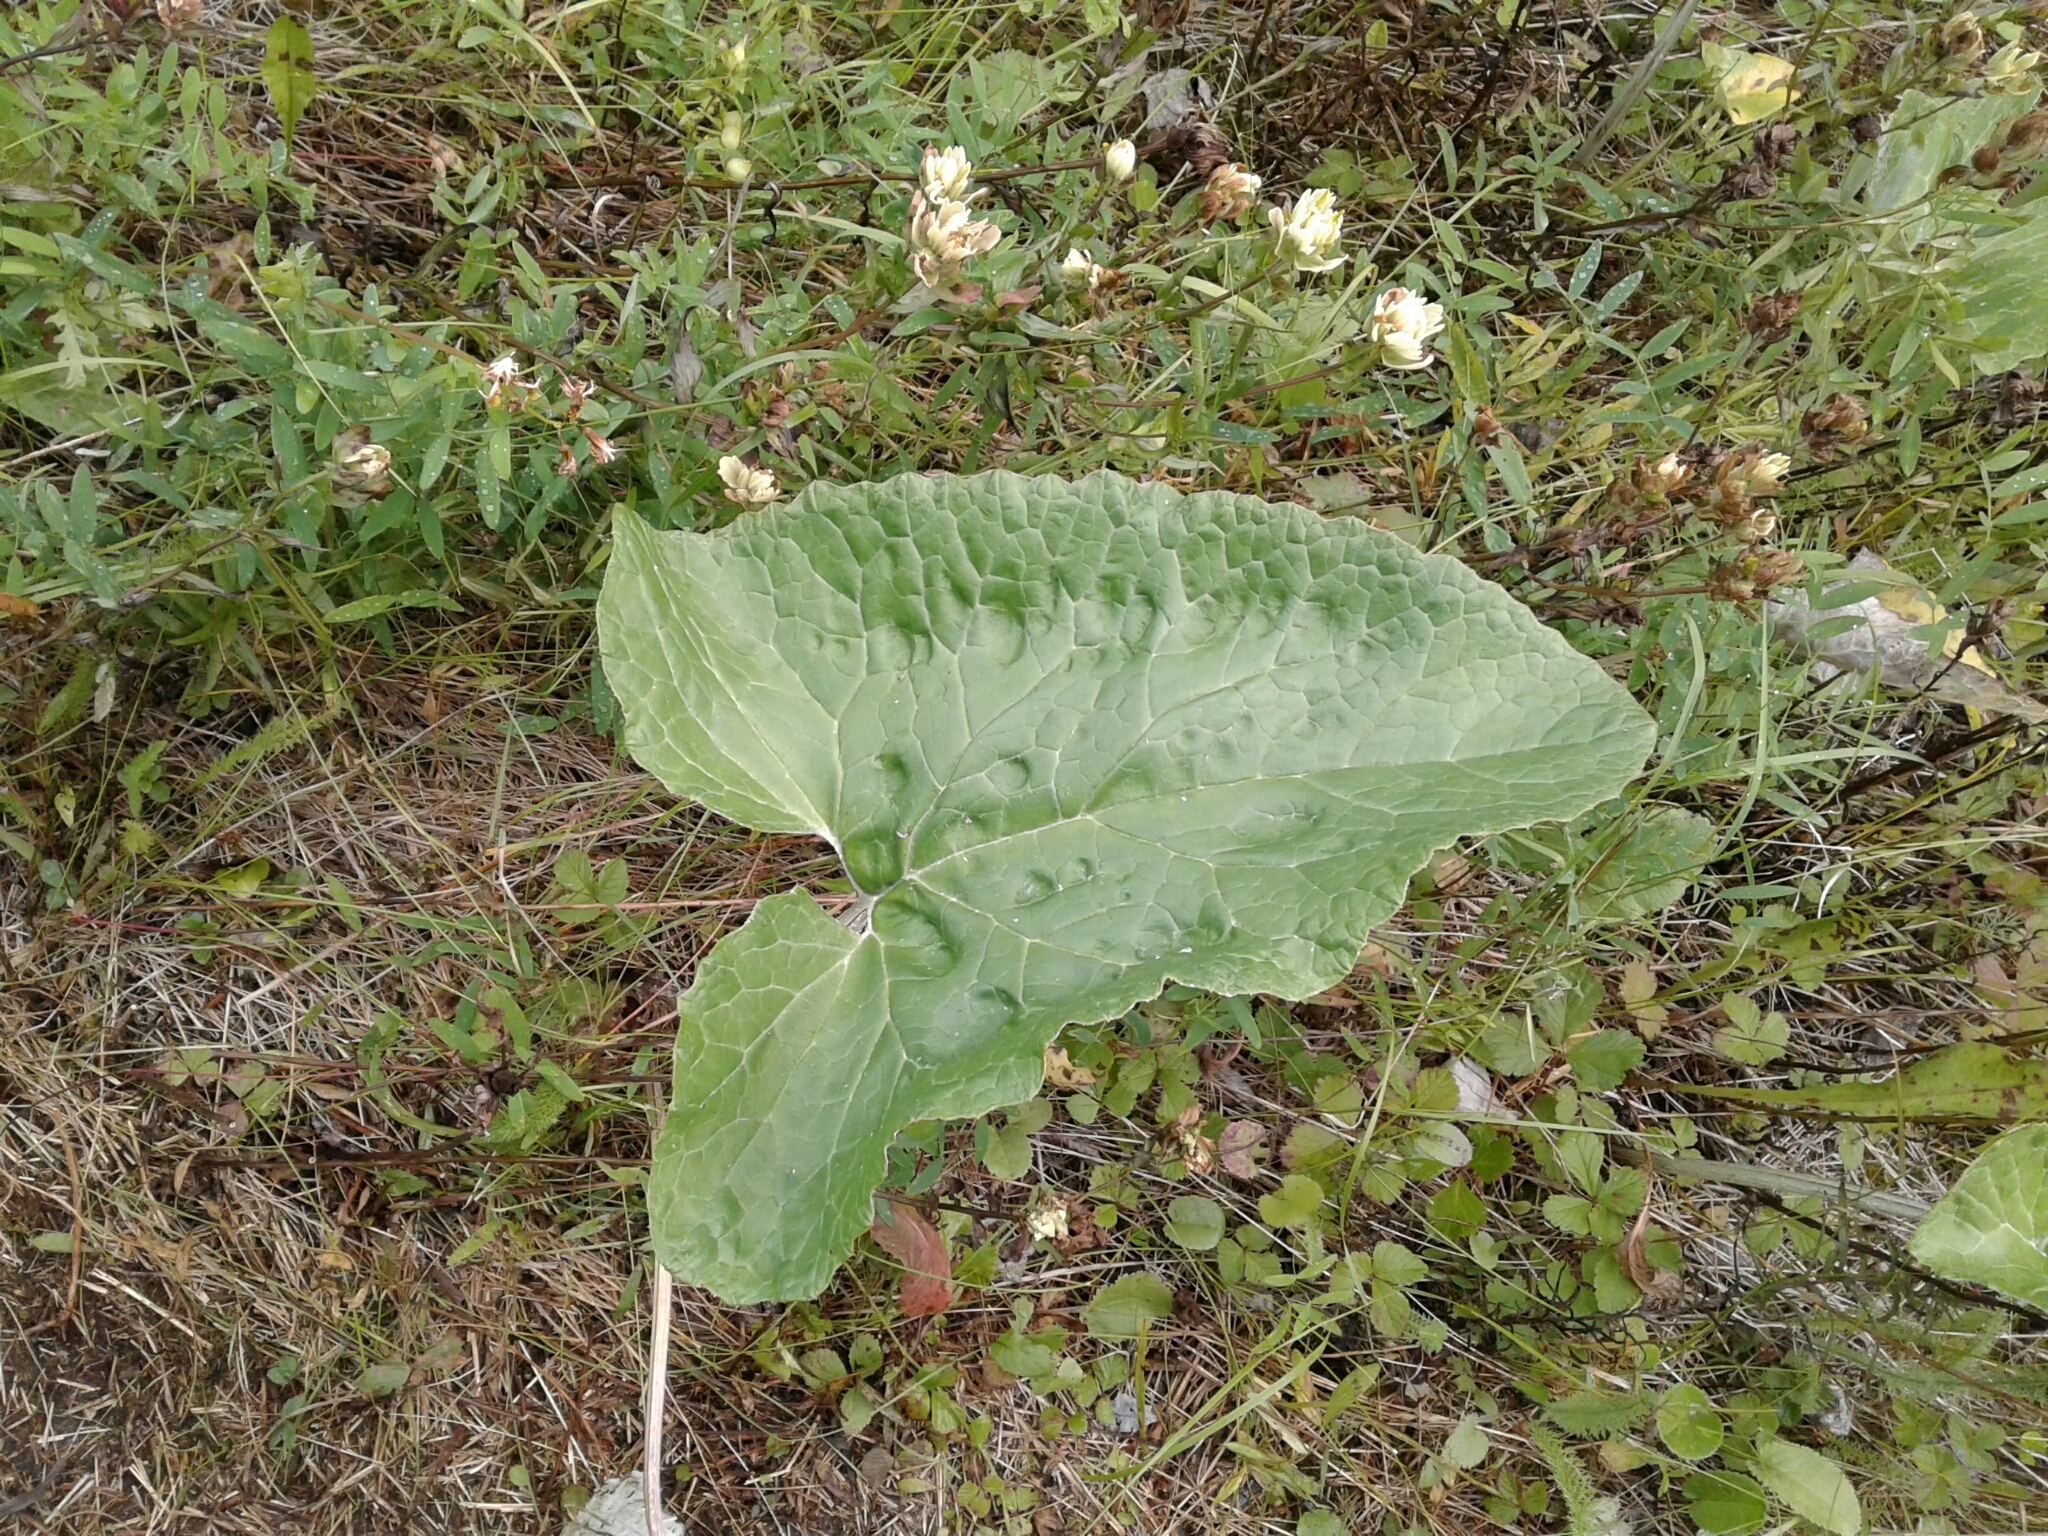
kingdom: Plantae
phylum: Tracheophyta
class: Magnoliopsida
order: Asterales
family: Asteraceae
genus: Petasites
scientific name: Petasites frigidus
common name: Arctic butterbur
